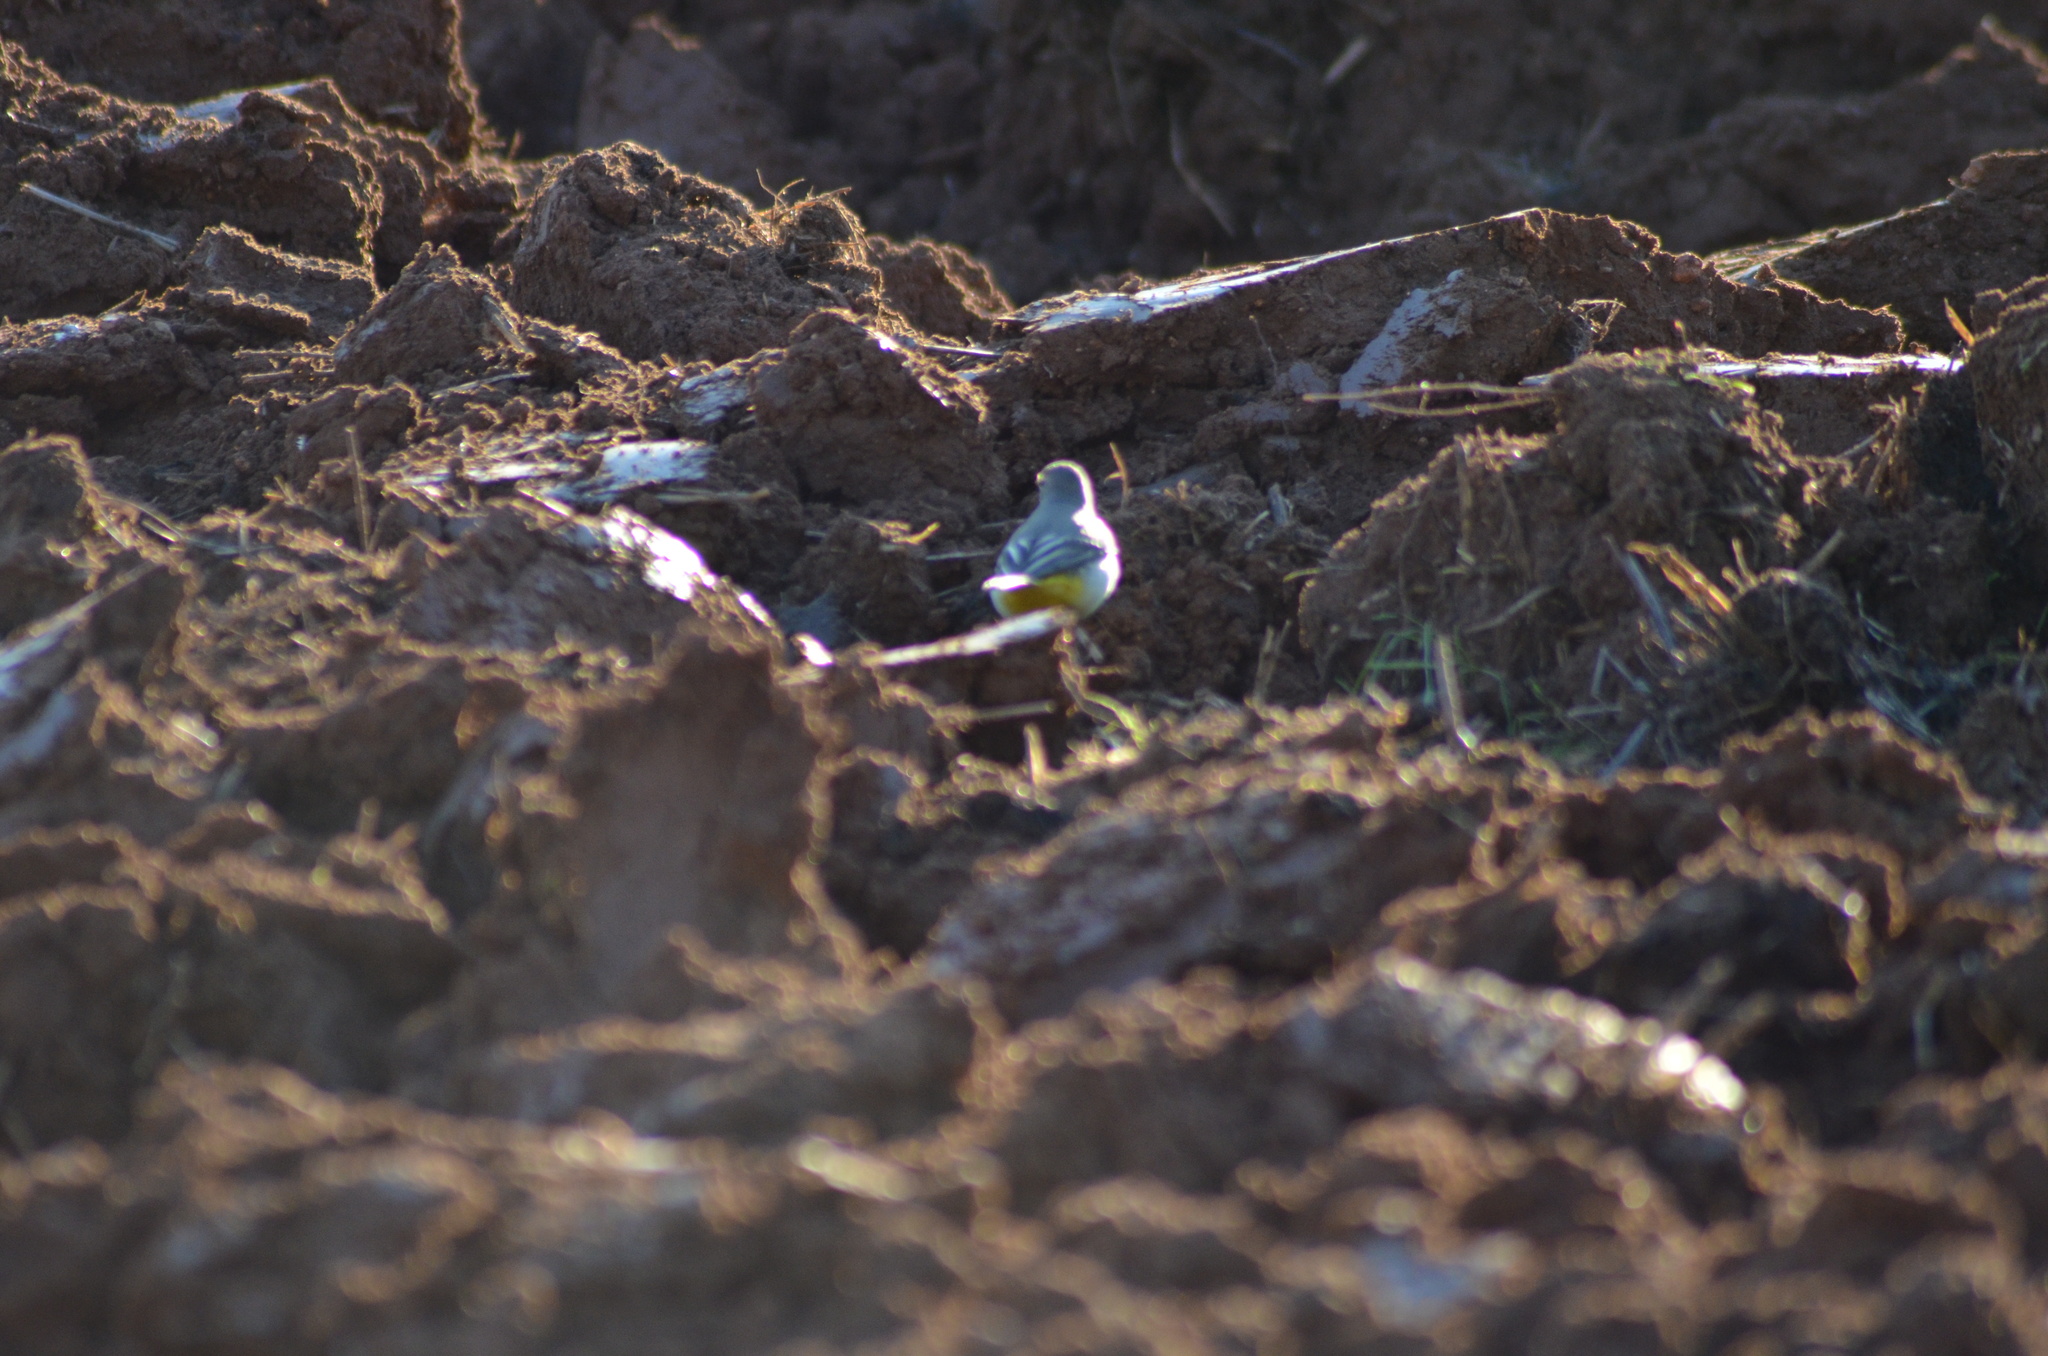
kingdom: Animalia
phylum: Chordata
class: Aves
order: Passeriformes
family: Motacillidae
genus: Motacilla
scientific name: Motacilla cinerea
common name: Grey wagtail
